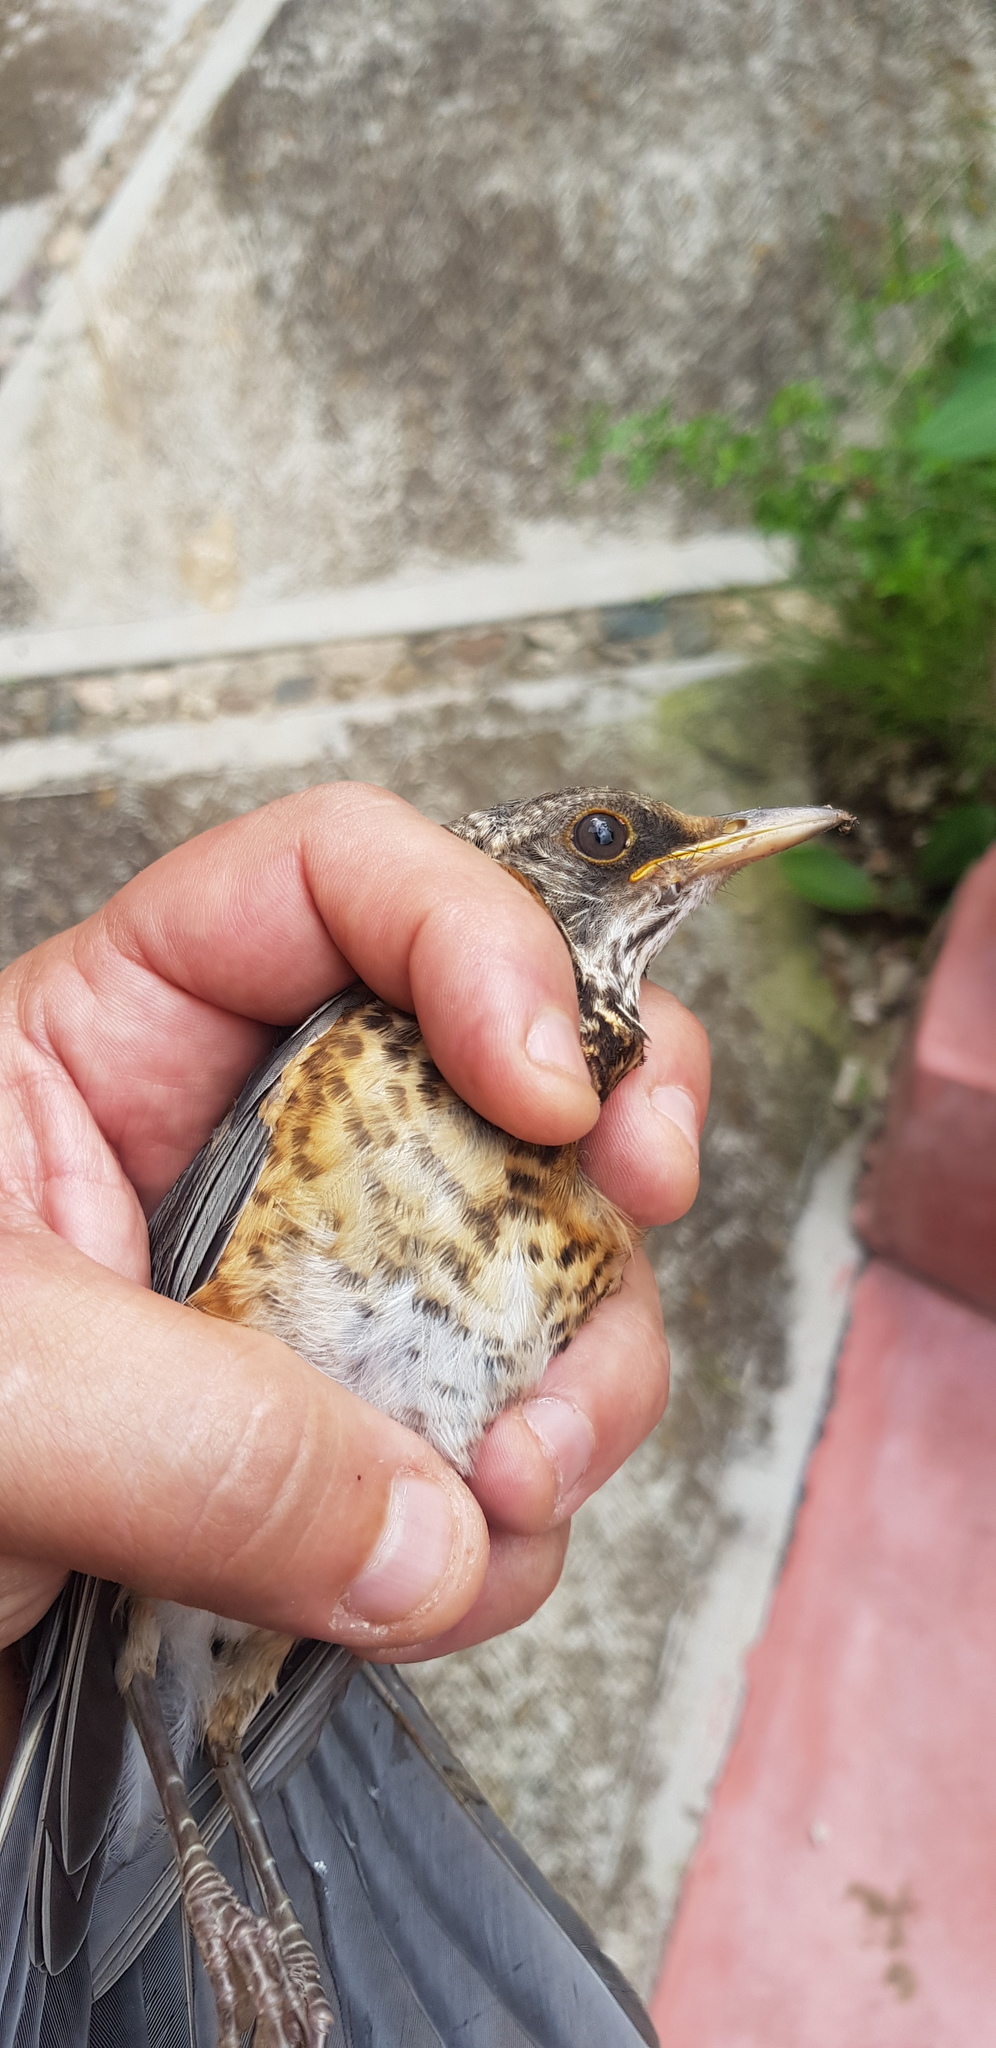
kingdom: Animalia
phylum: Chordata
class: Aves
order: Passeriformes
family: Turdidae
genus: Turdus
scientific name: Turdus rufopalliatus
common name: Rufous-backed robin
